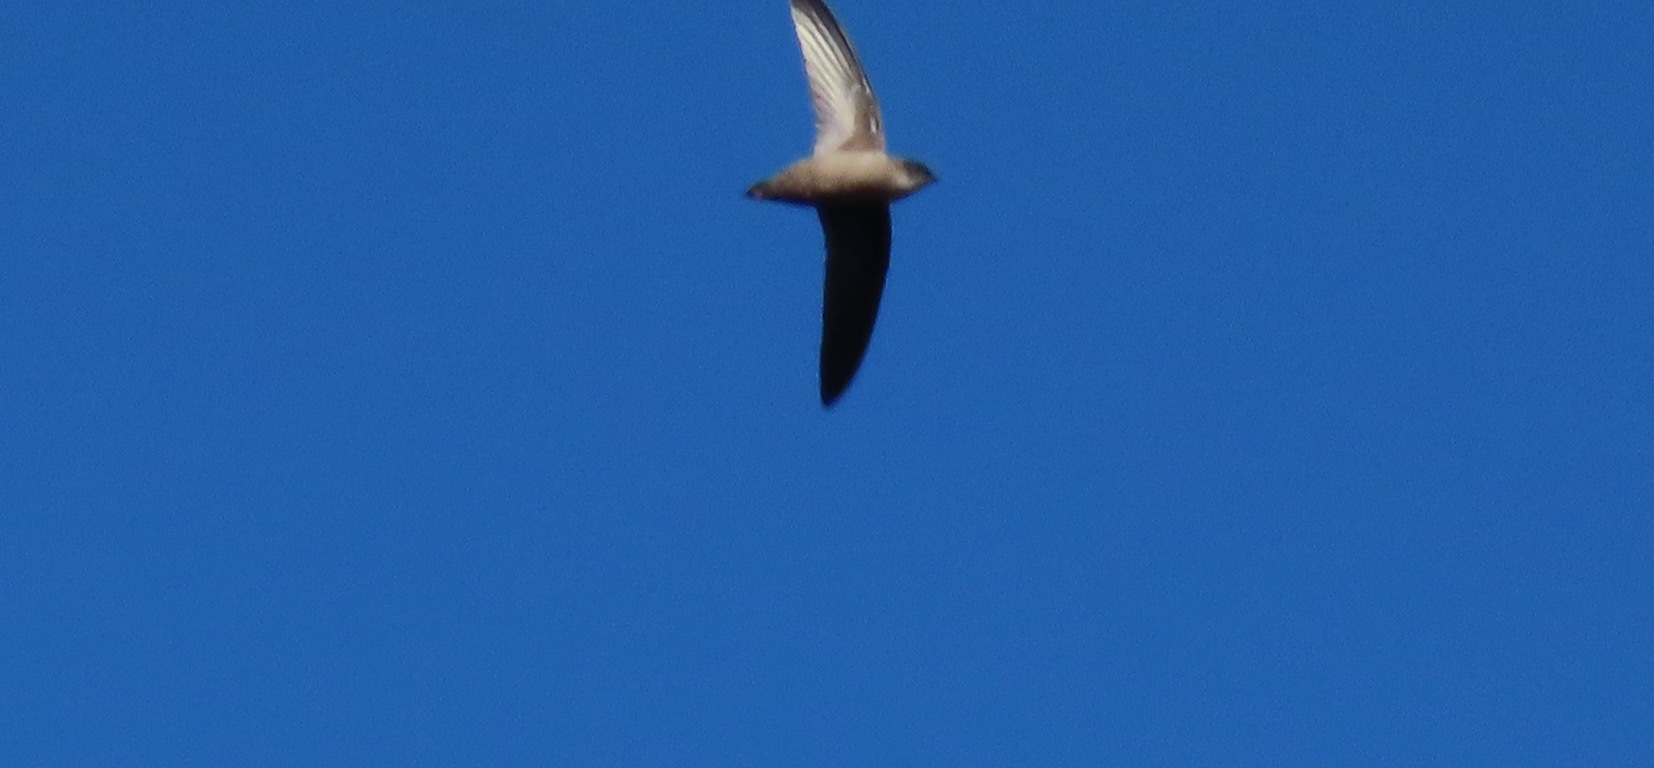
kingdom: Animalia
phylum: Chordata
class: Aves
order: Apodiformes
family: Apodidae
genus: Chaetura
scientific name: Chaetura vauxi
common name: Vaux's swift
